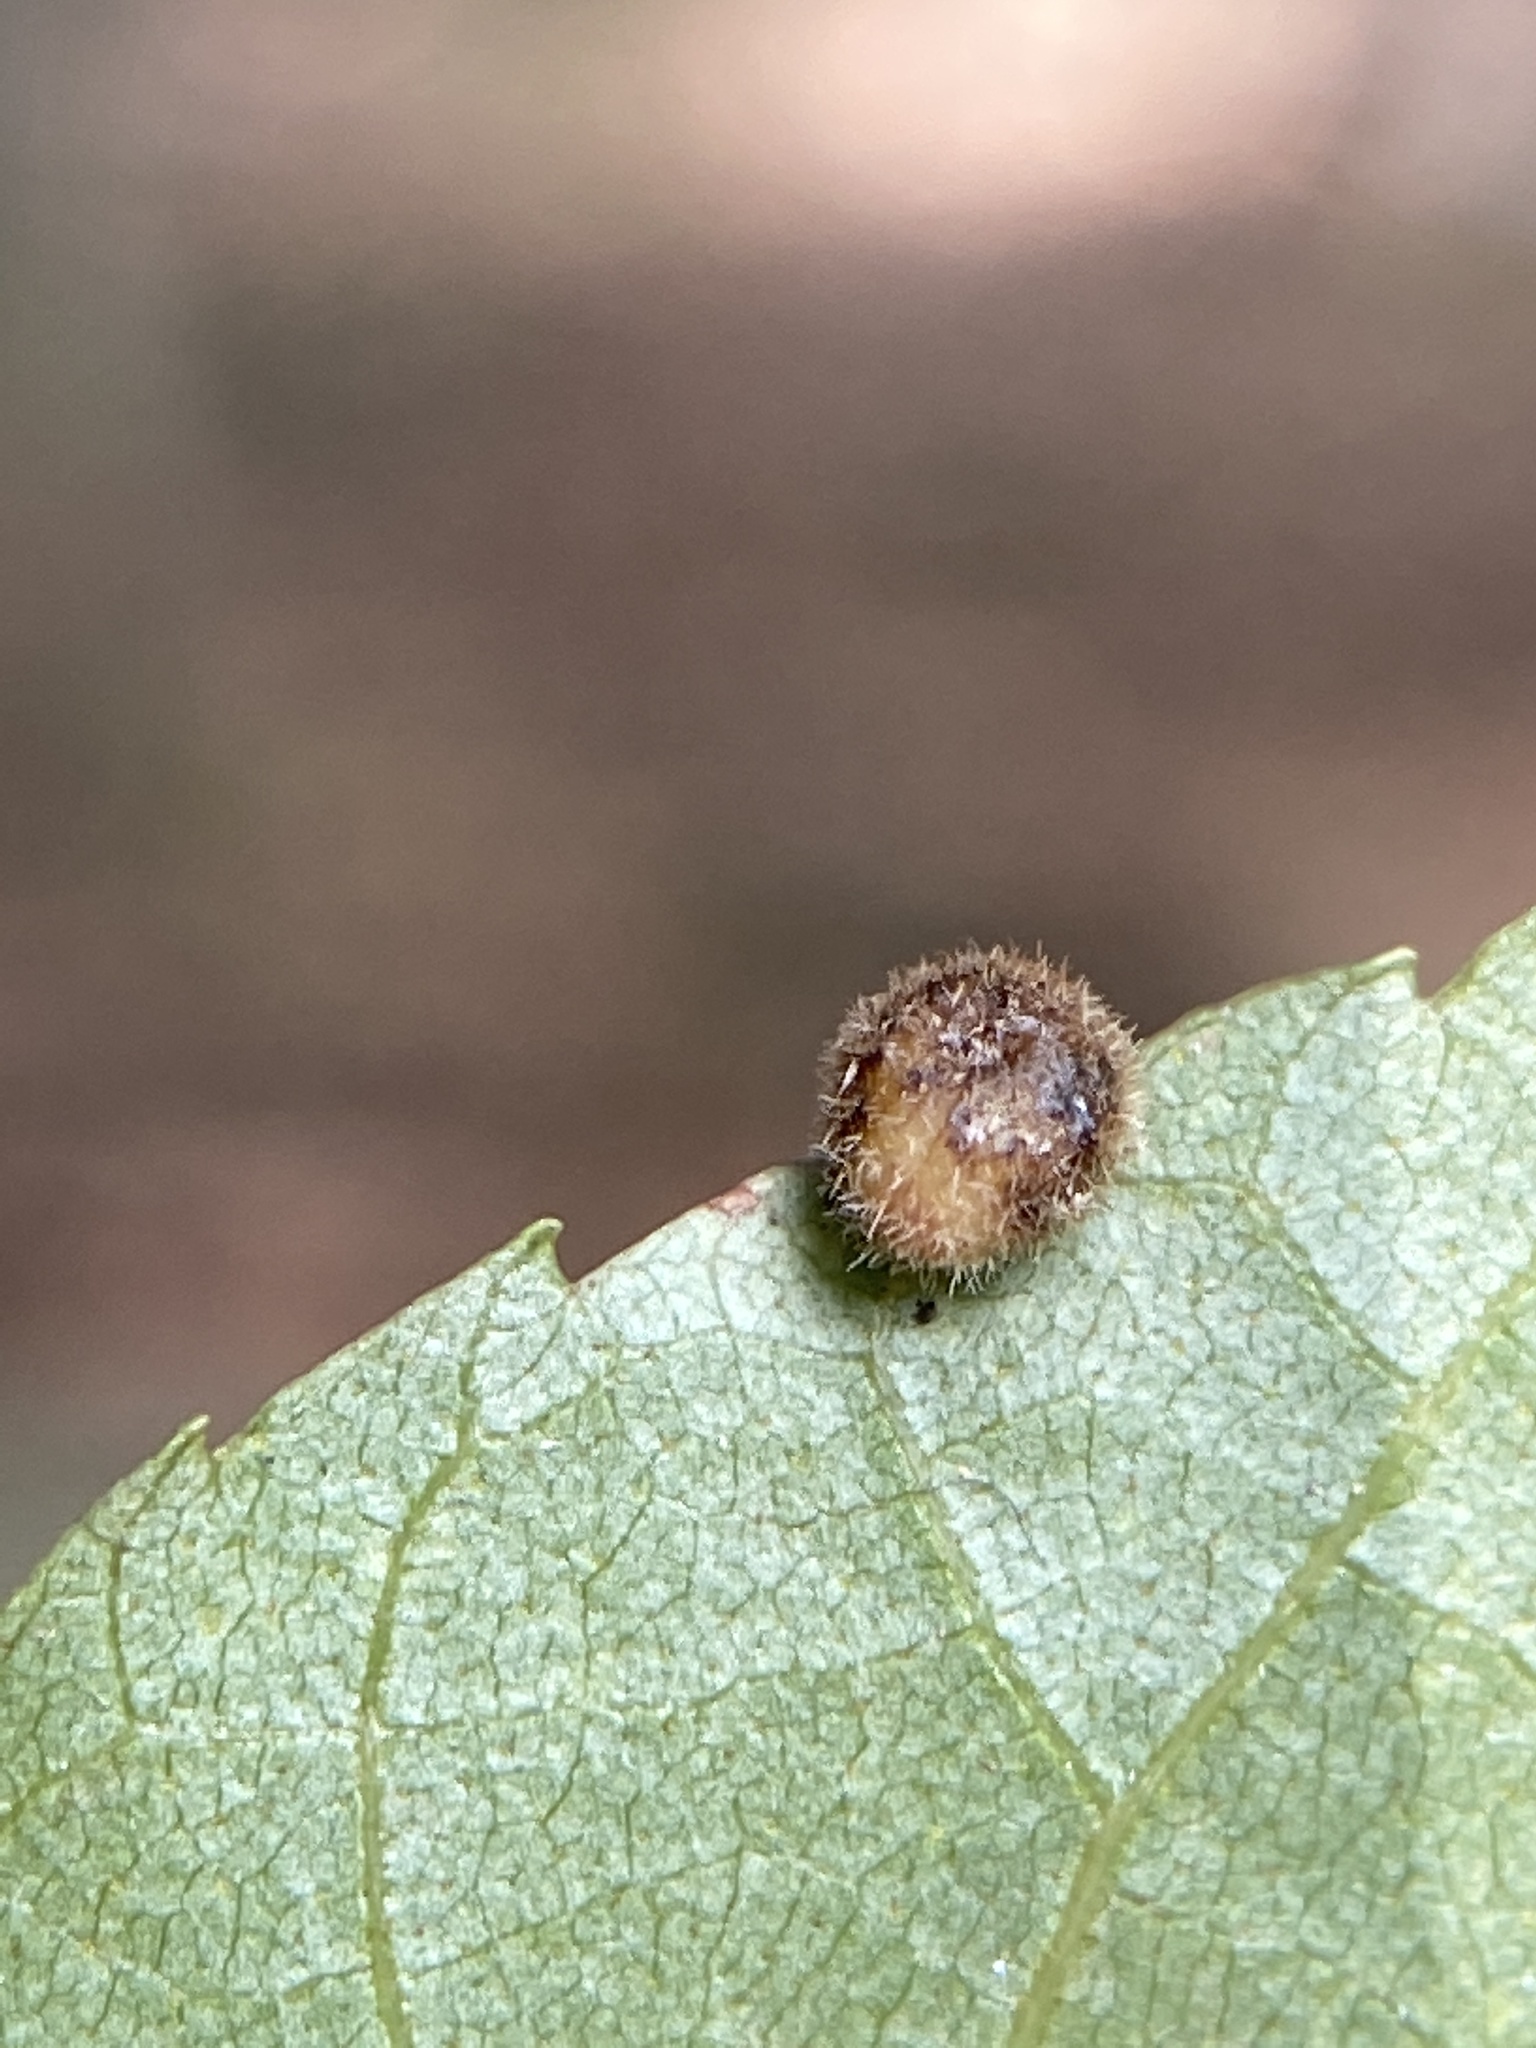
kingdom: Animalia
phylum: Arthropoda
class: Insecta
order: Diptera
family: Cecidomyiidae
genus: Caryomyia
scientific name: Caryomyia thompsoni
